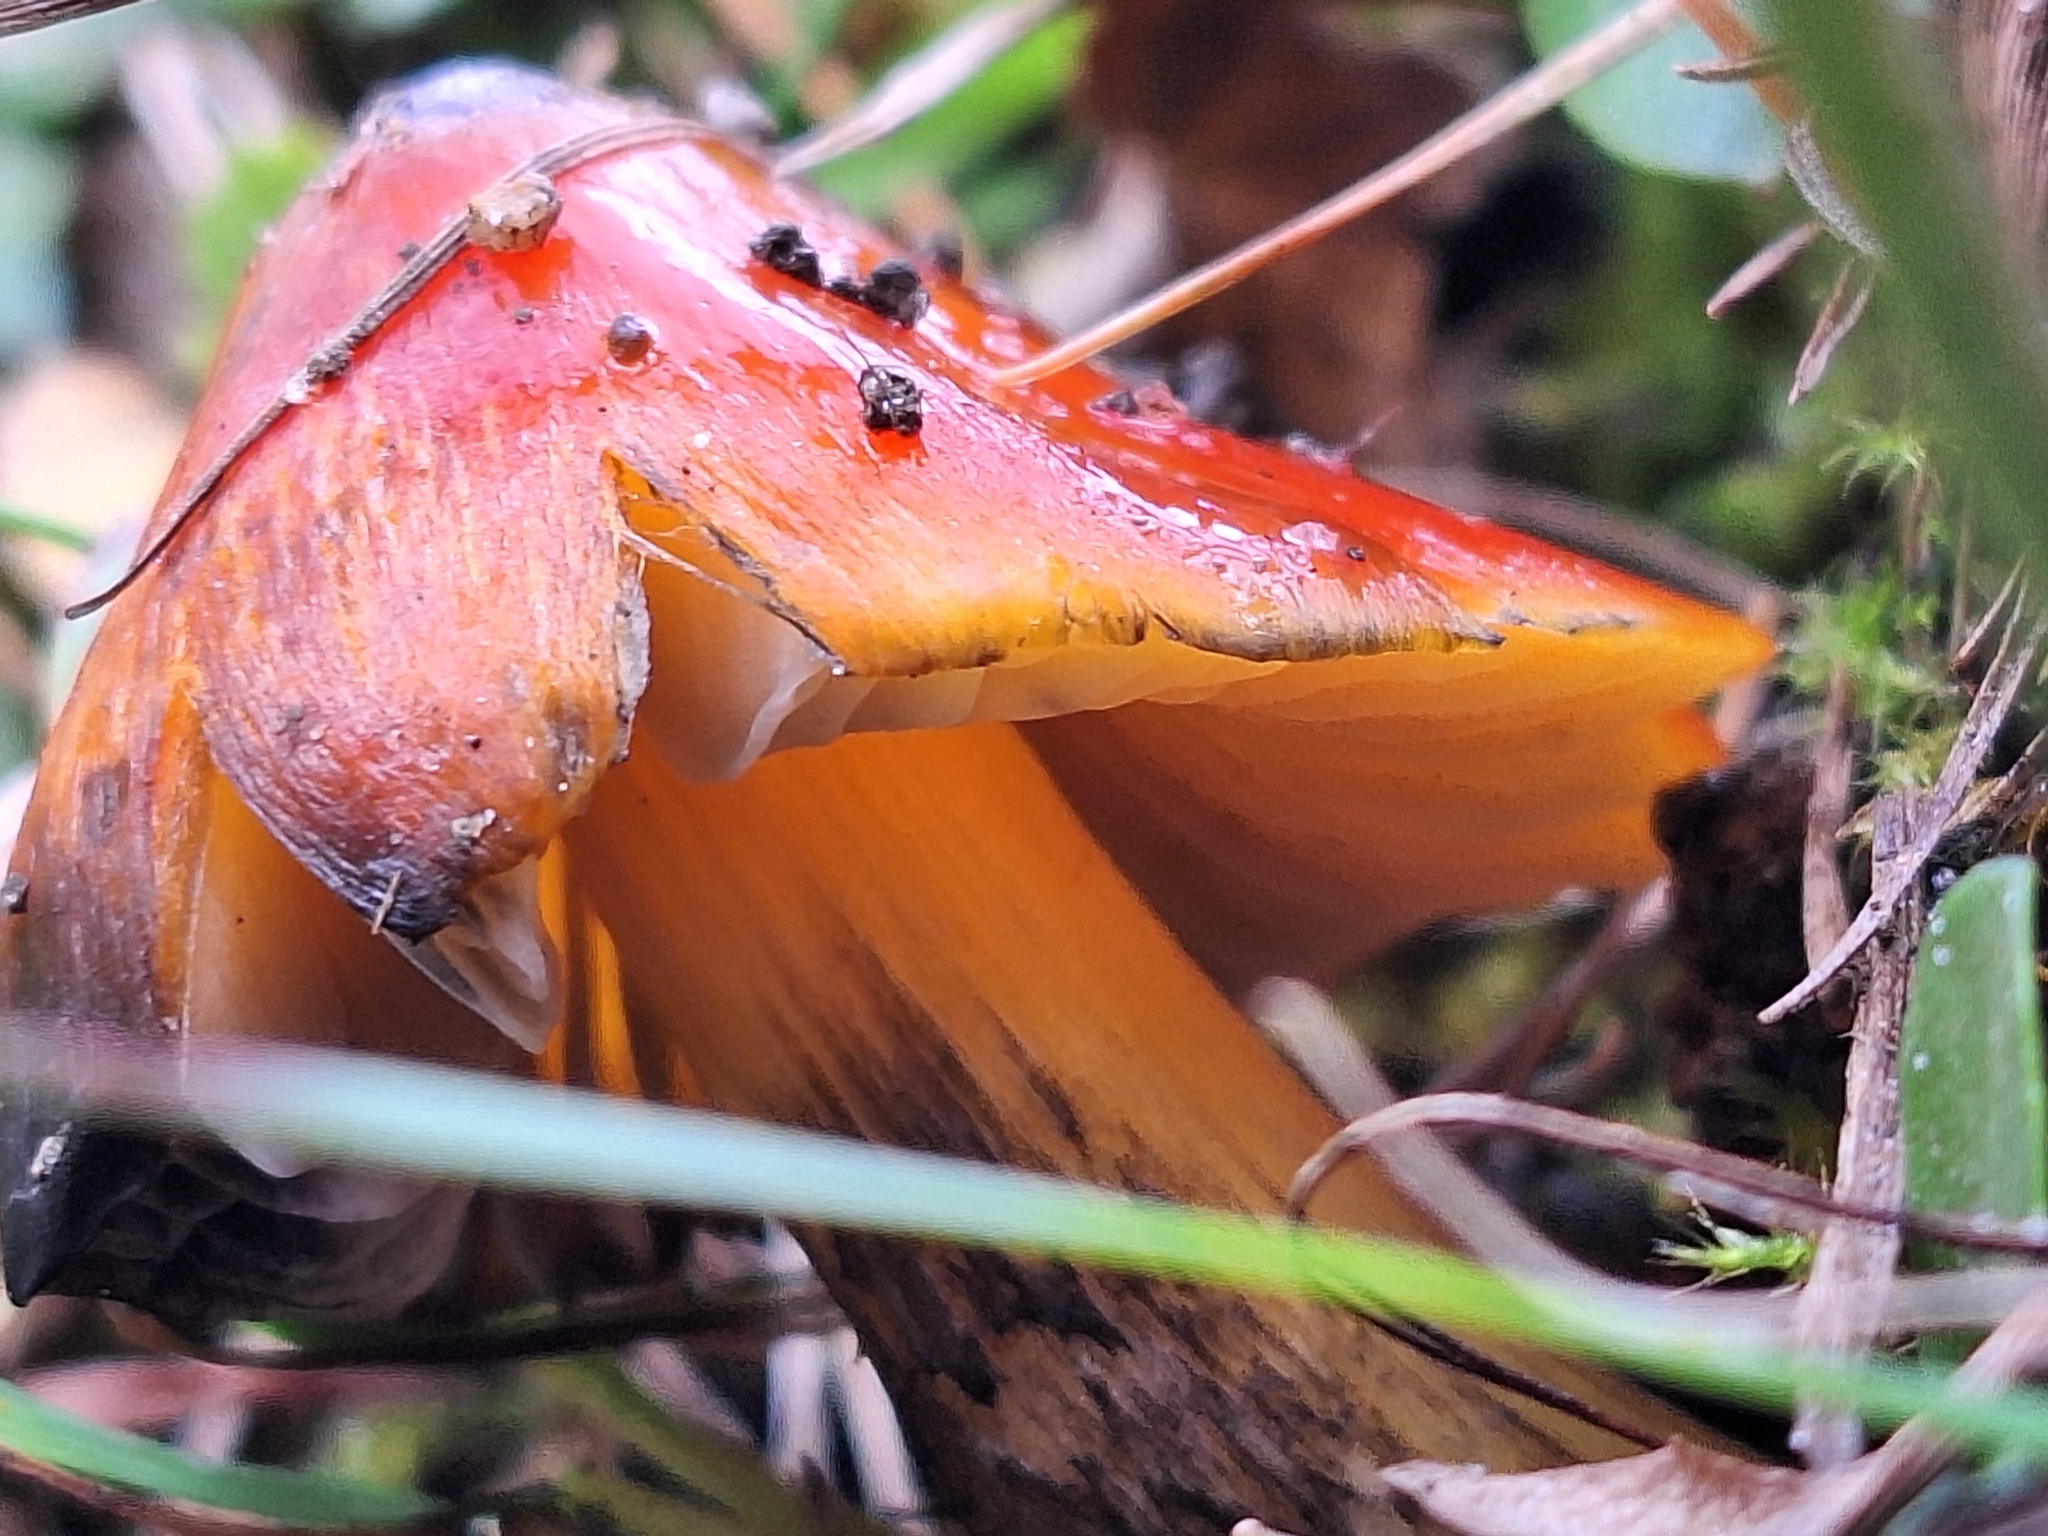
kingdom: Fungi
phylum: Basidiomycota
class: Agaricomycetes
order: Agaricales
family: Hygrophoraceae
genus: Hygrocybe
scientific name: Hygrocybe conica
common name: Blackening wax-cap
